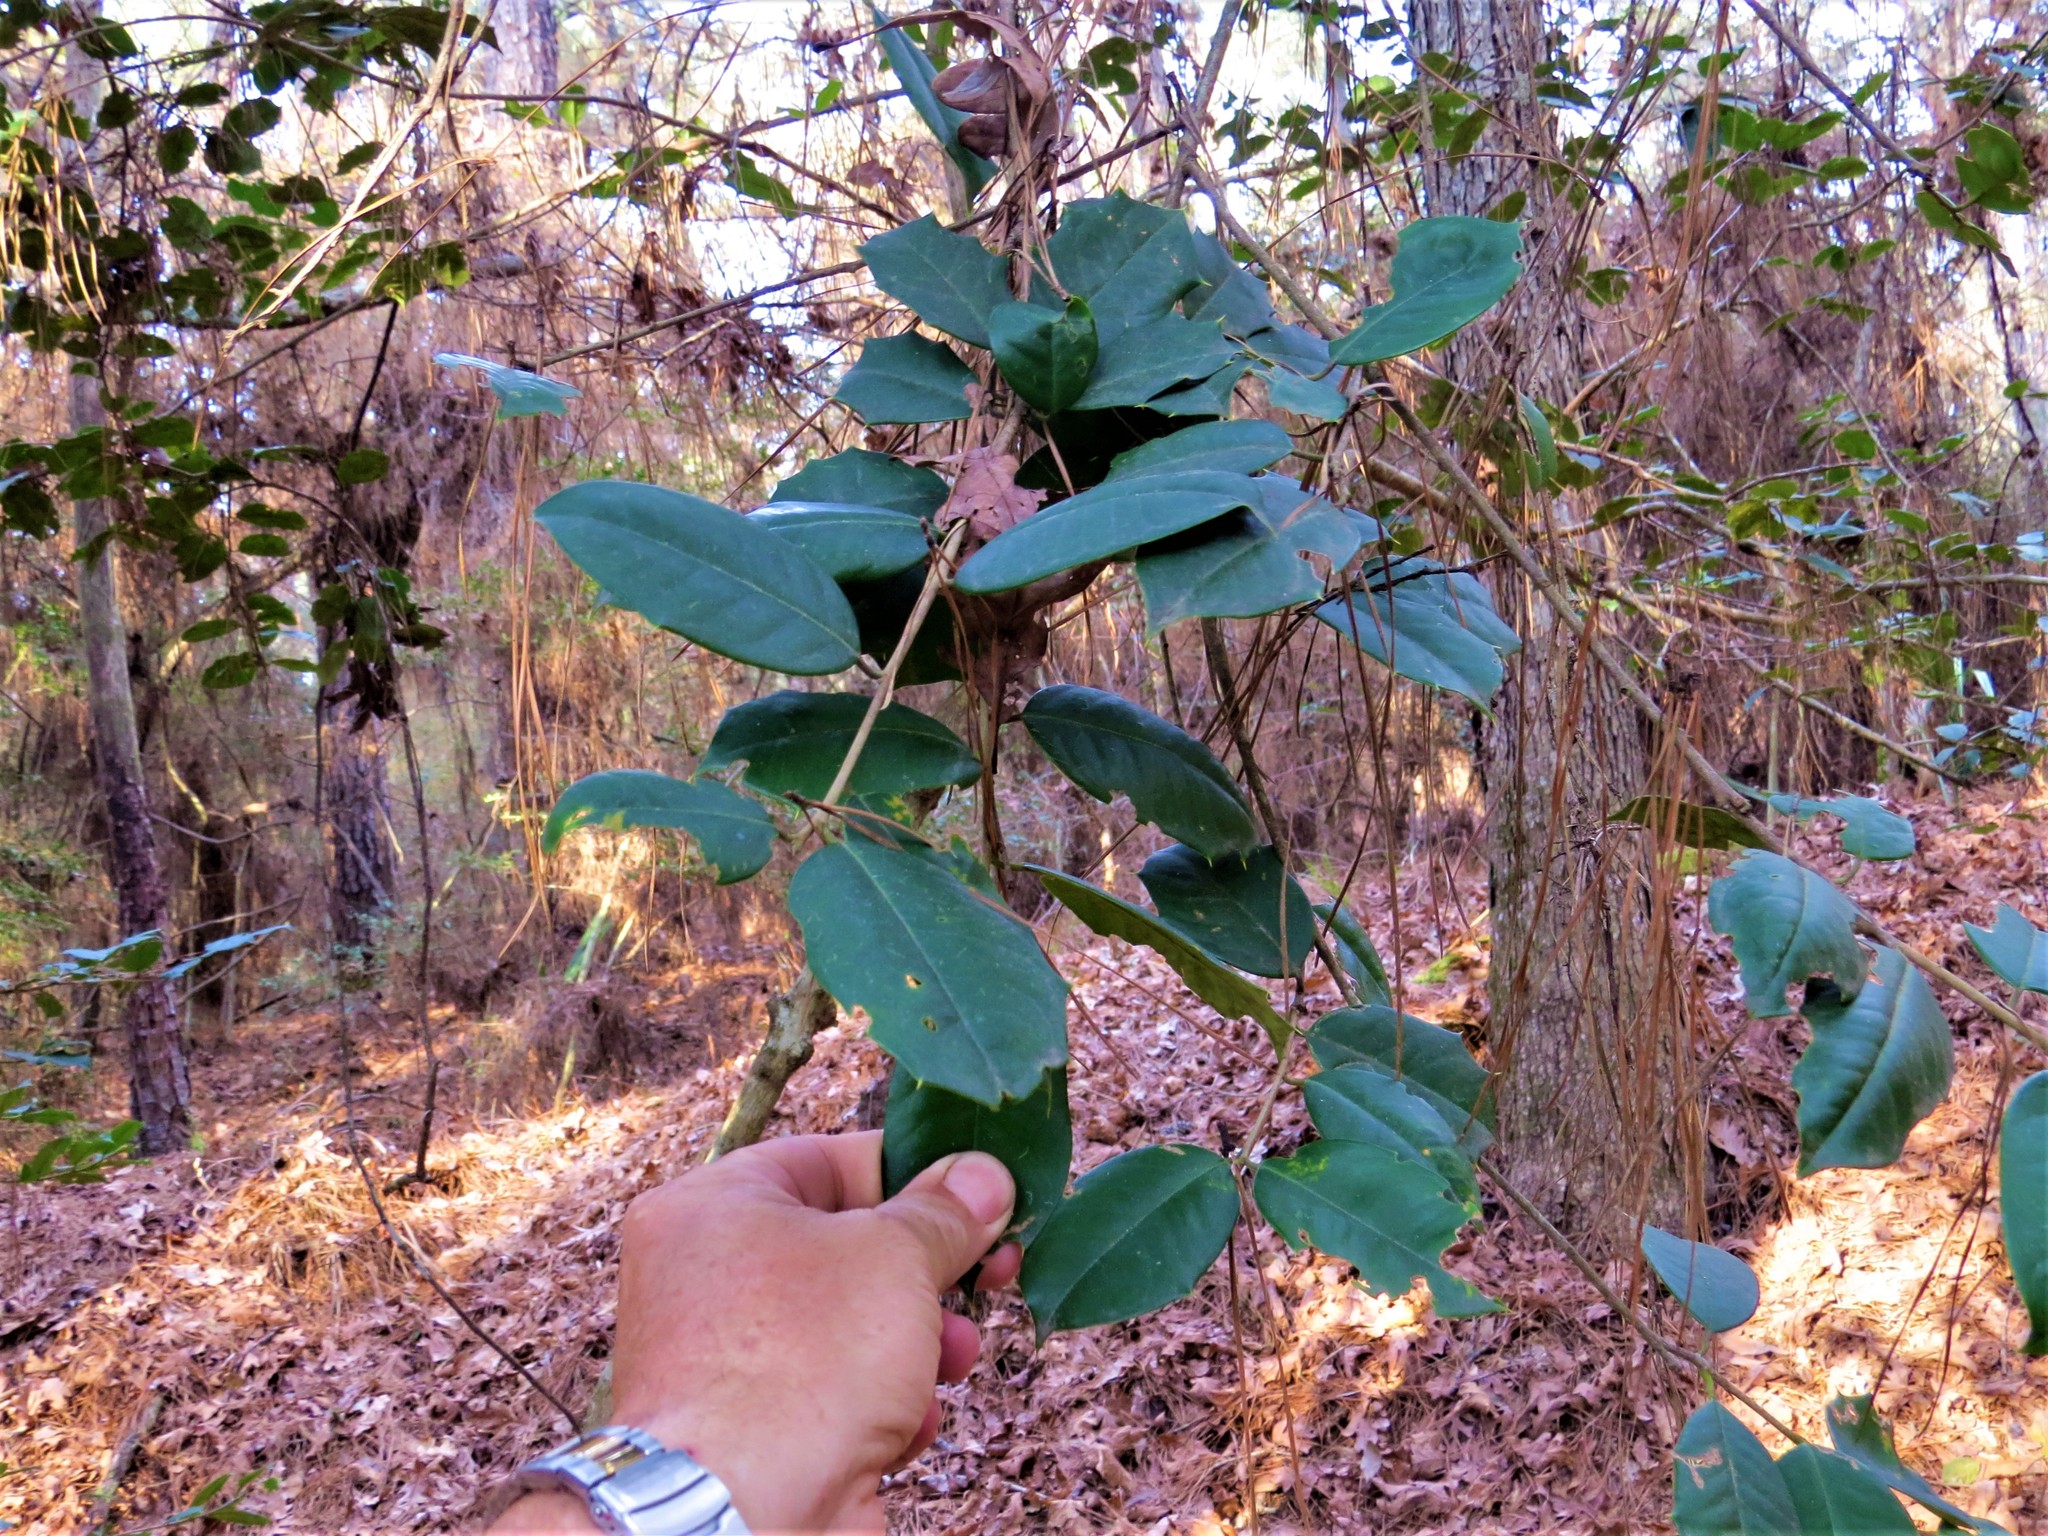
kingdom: Plantae
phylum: Tracheophyta
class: Magnoliopsida
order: Aquifoliales
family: Aquifoliaceae
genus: Ilex
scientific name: Ilex opaca
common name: American holly
